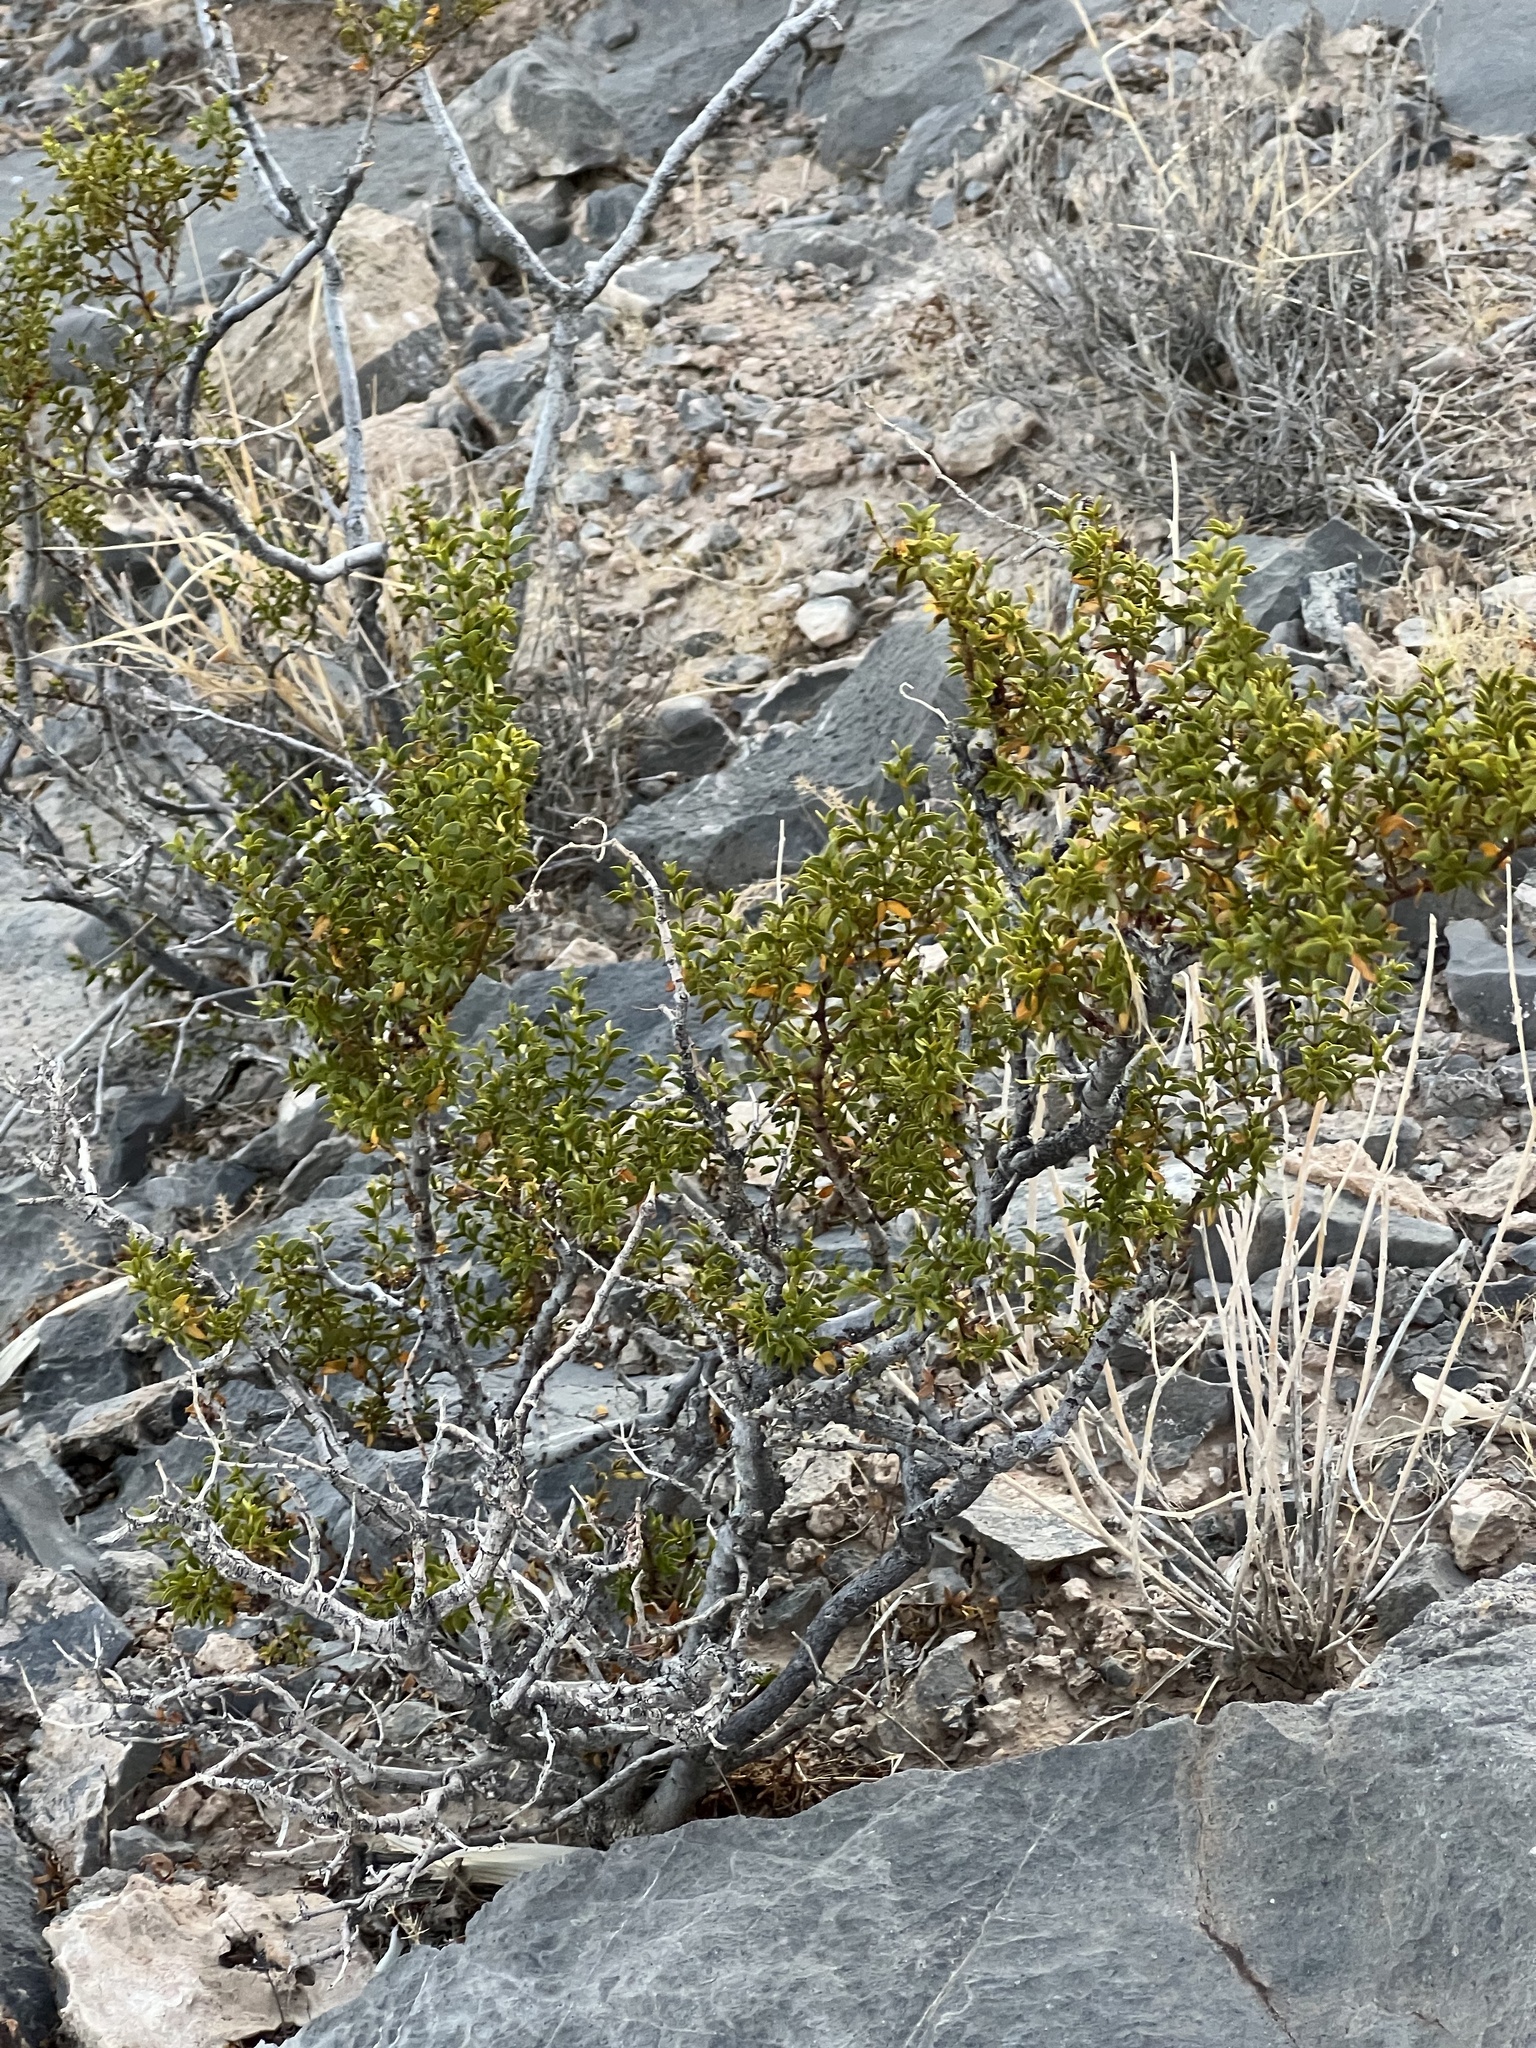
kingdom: Plantae
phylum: Tracheophyta
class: Magnoliopsida
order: Zygophyllales
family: Zygophyllaceae
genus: Larrea
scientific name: Larrea tridentata
